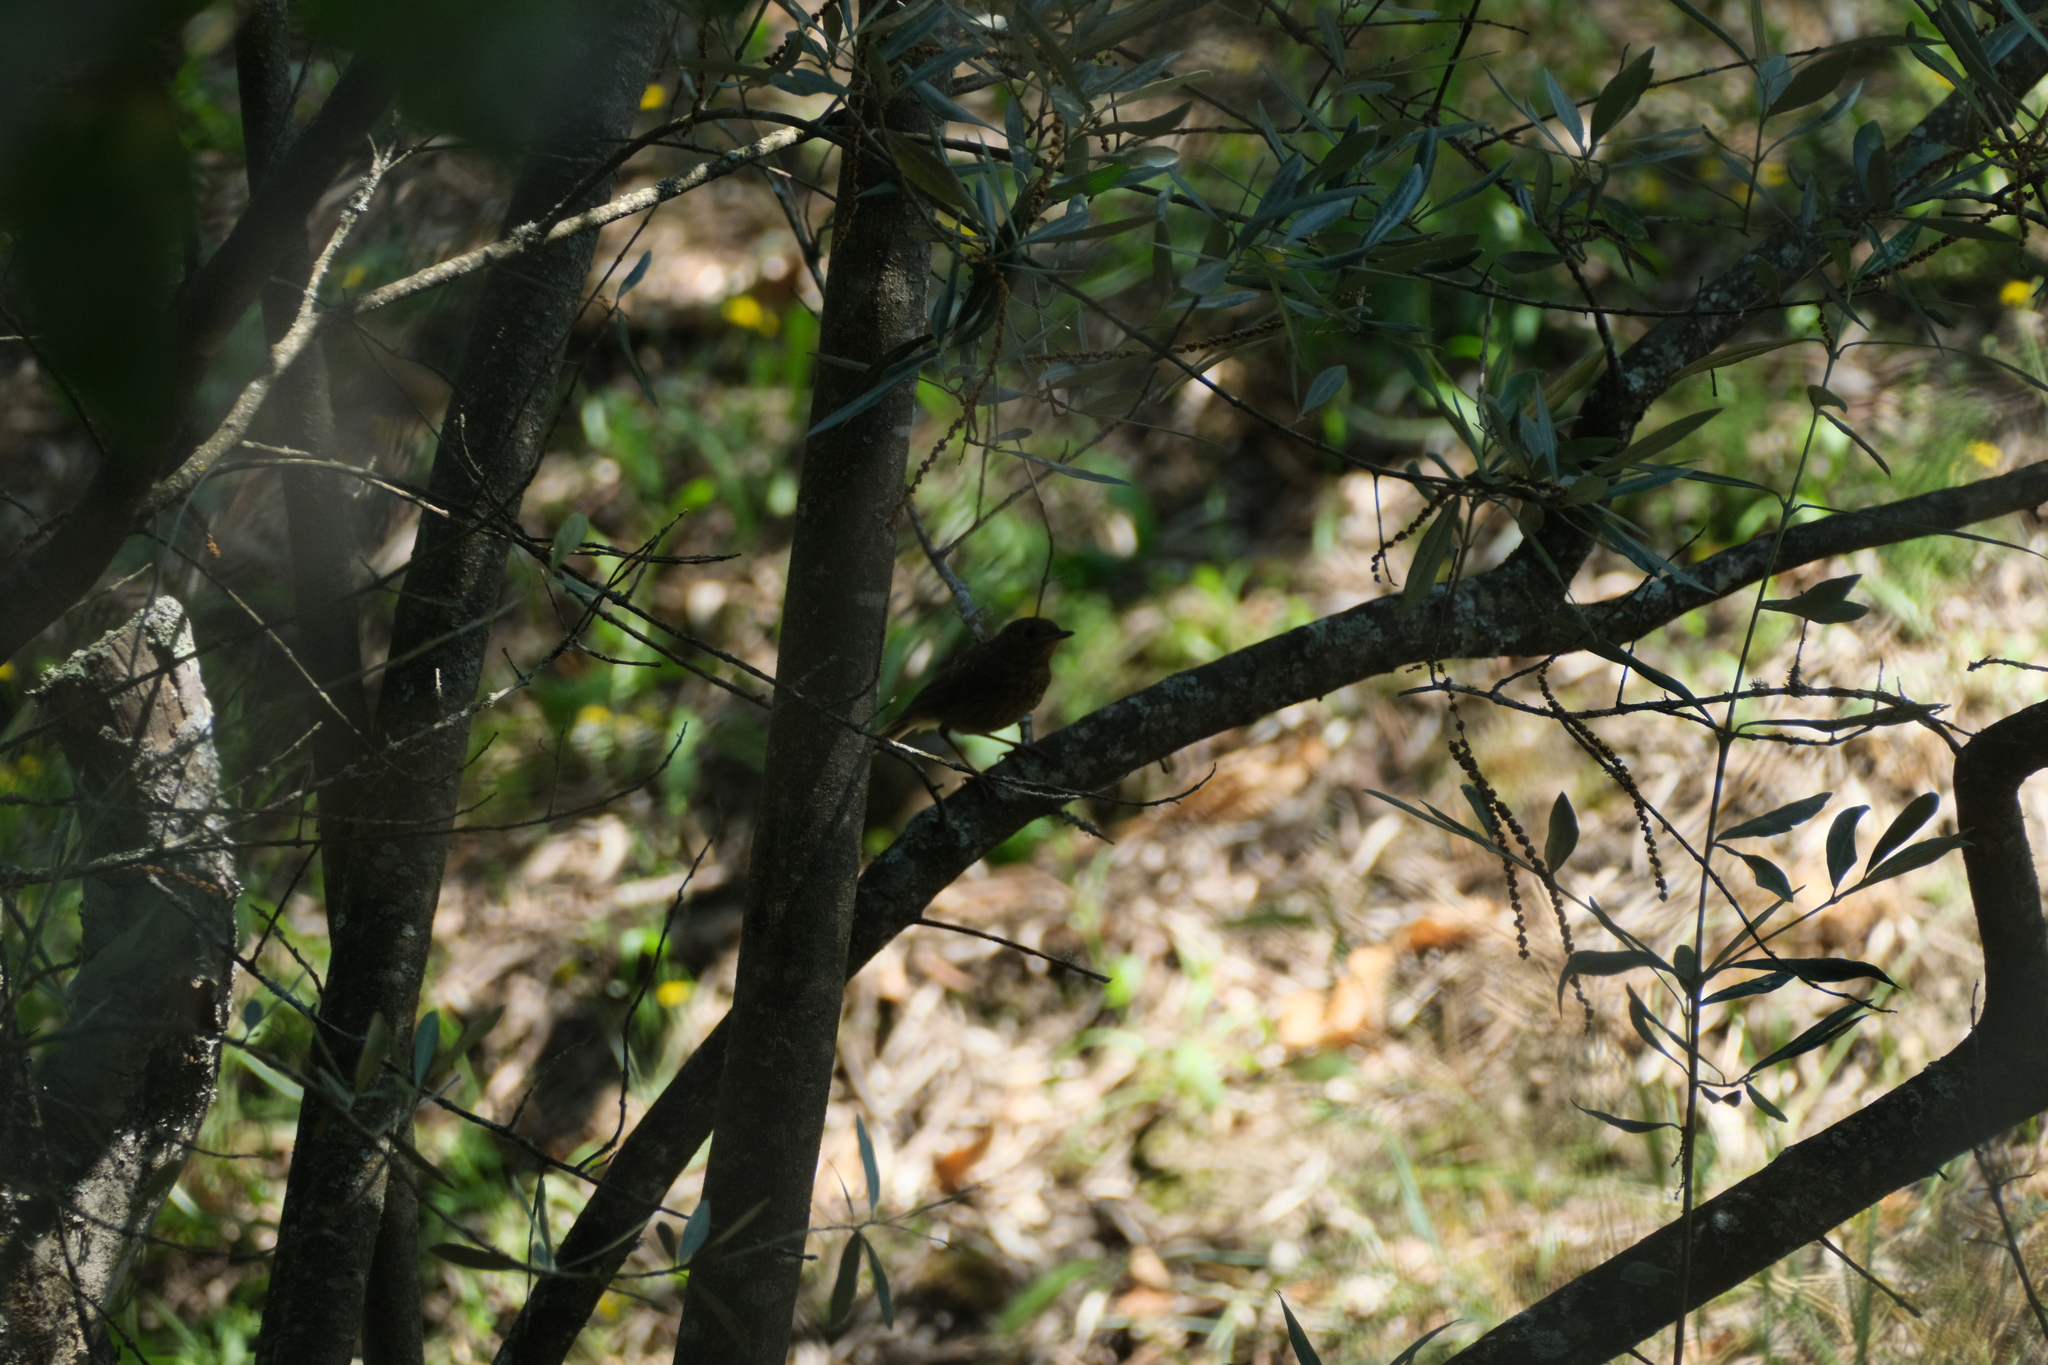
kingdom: Animalia
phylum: Chordata
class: Aves
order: Passeriformes
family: Muscicapidae
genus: Erithacus
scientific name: Erithacus rubecula
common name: European robin
